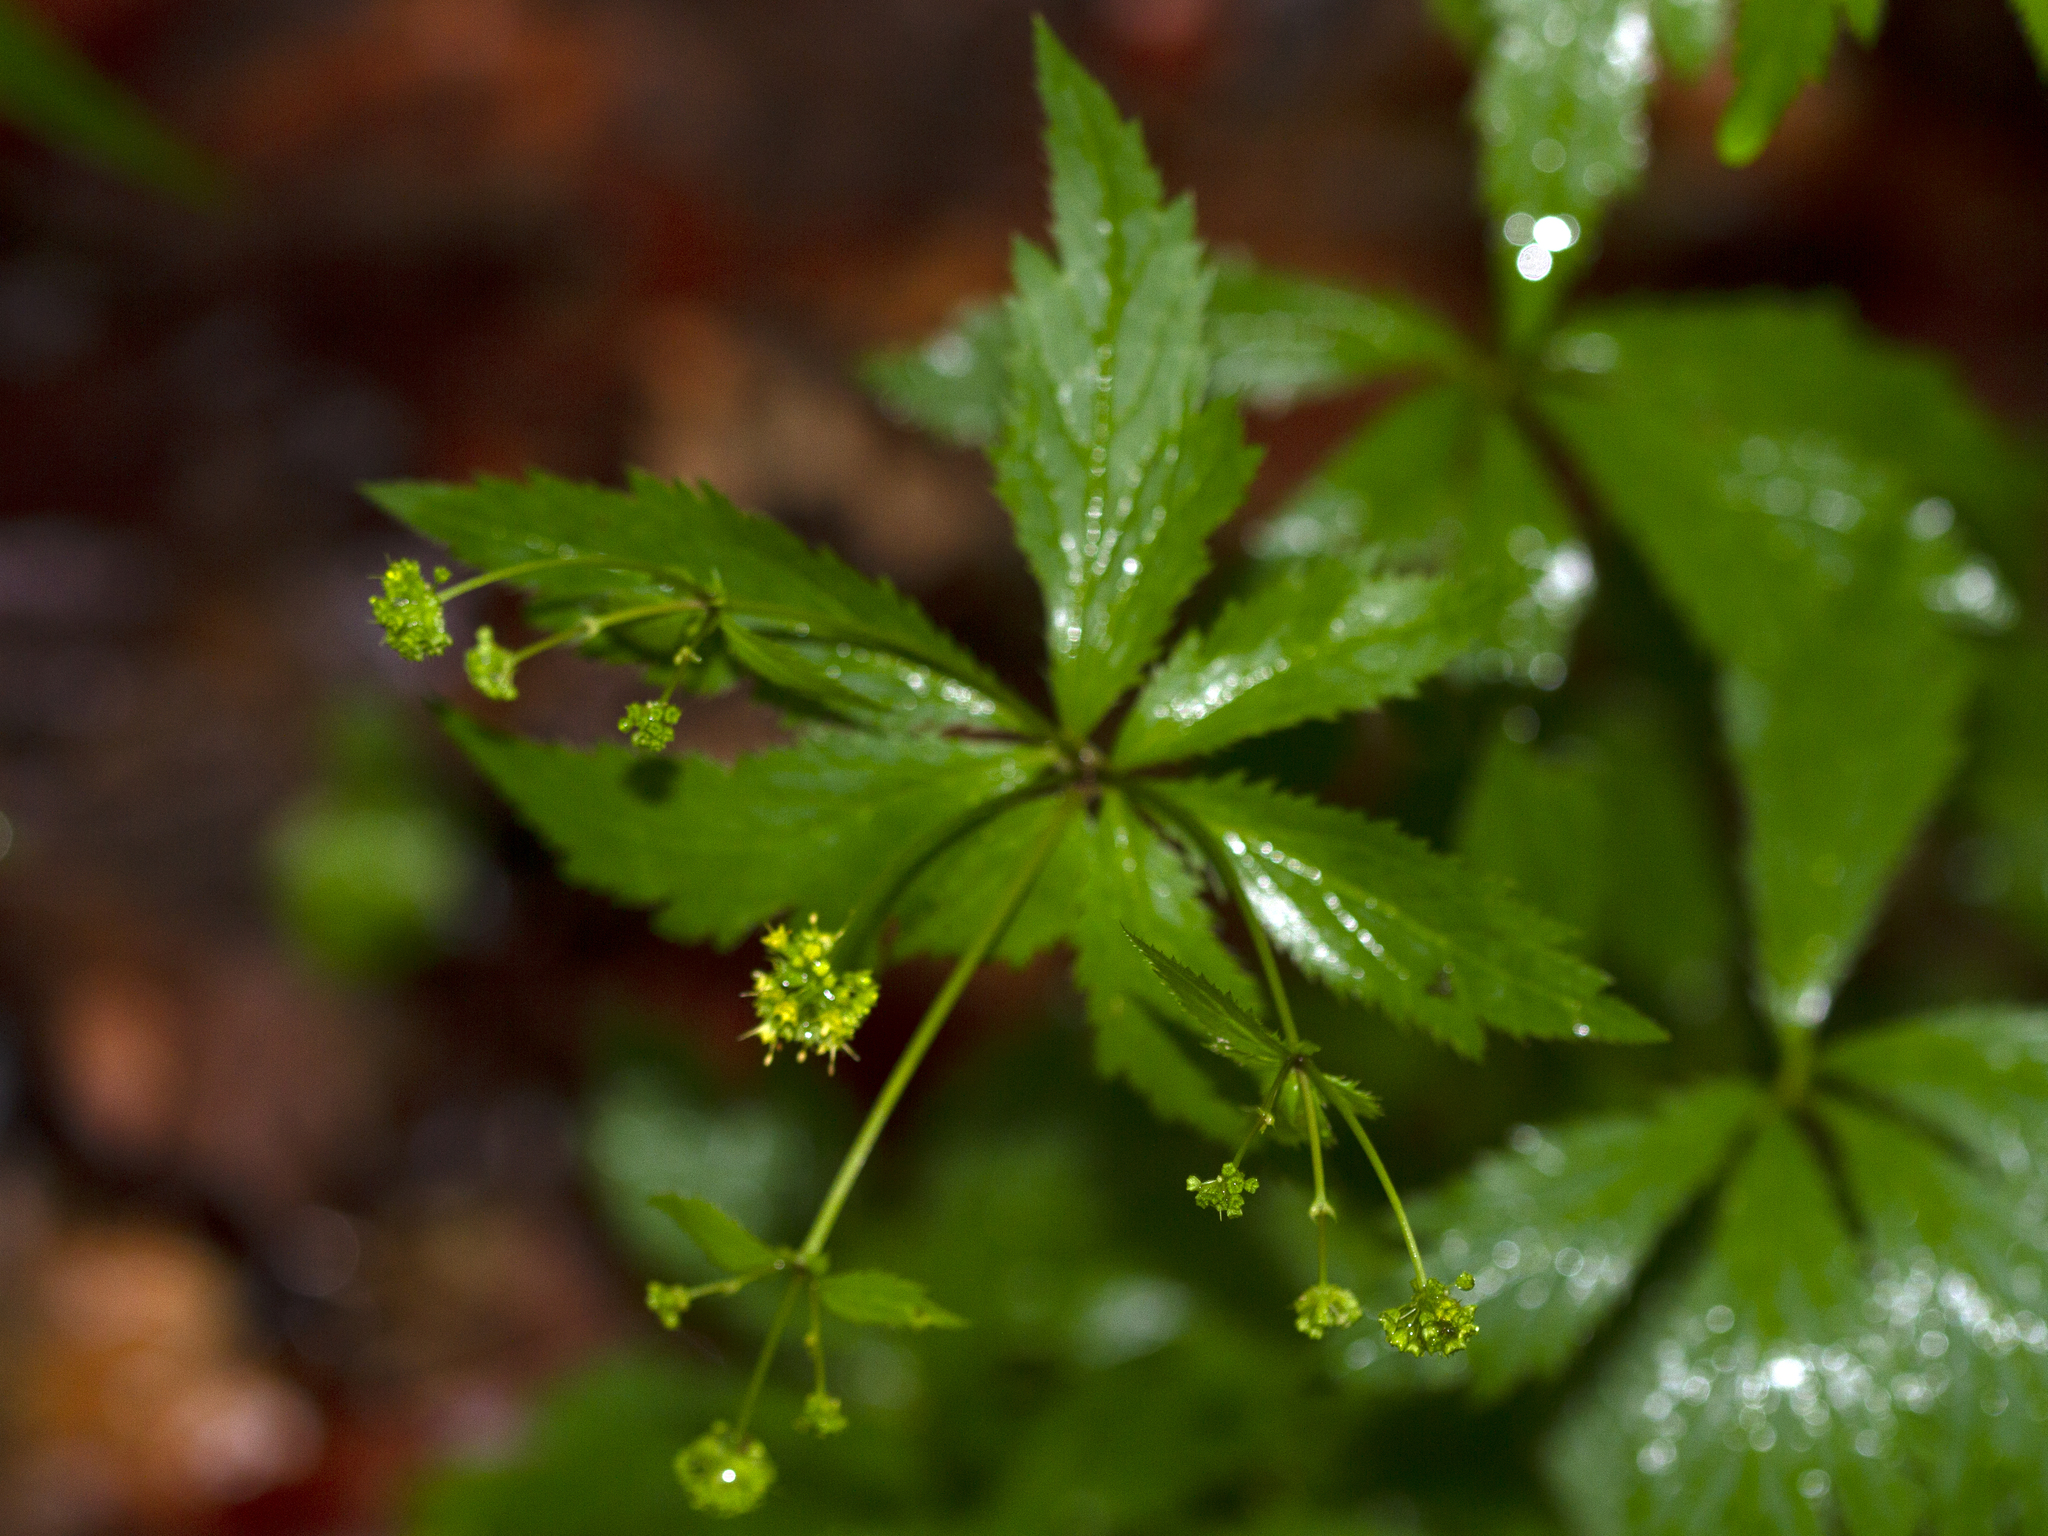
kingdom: Plantae
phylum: Tracheophyta
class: Magnoliopsida
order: Apiales
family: Apiaceae
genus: Sanicula
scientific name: Sanicula odorata
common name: Cluster sanicle
